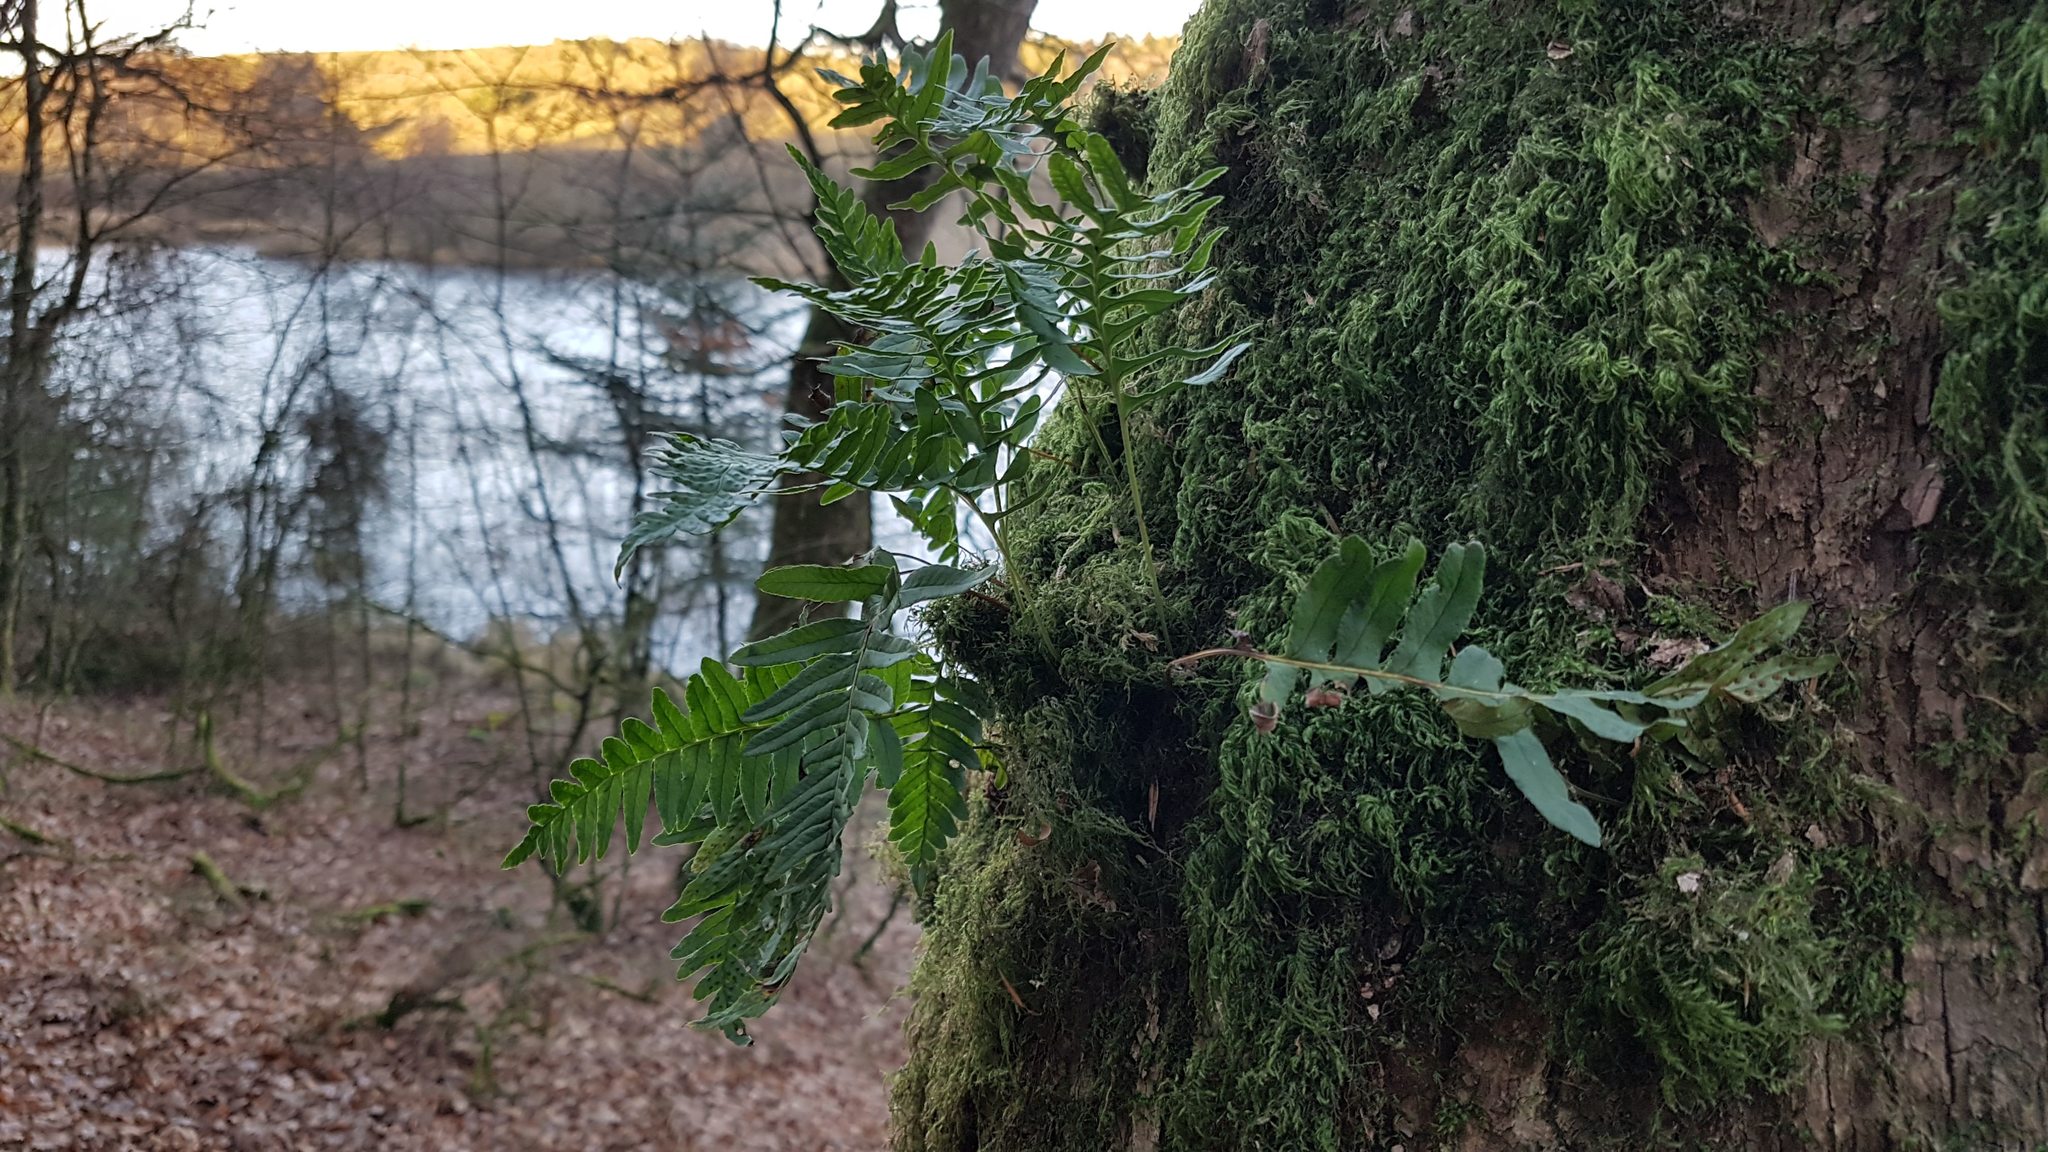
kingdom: Plantae
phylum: Tracheophyta
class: Polypodiopsida
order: Polypodiales
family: Polypodiaceae
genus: Polypodium
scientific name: Polypodium vulgare
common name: Common polypody
